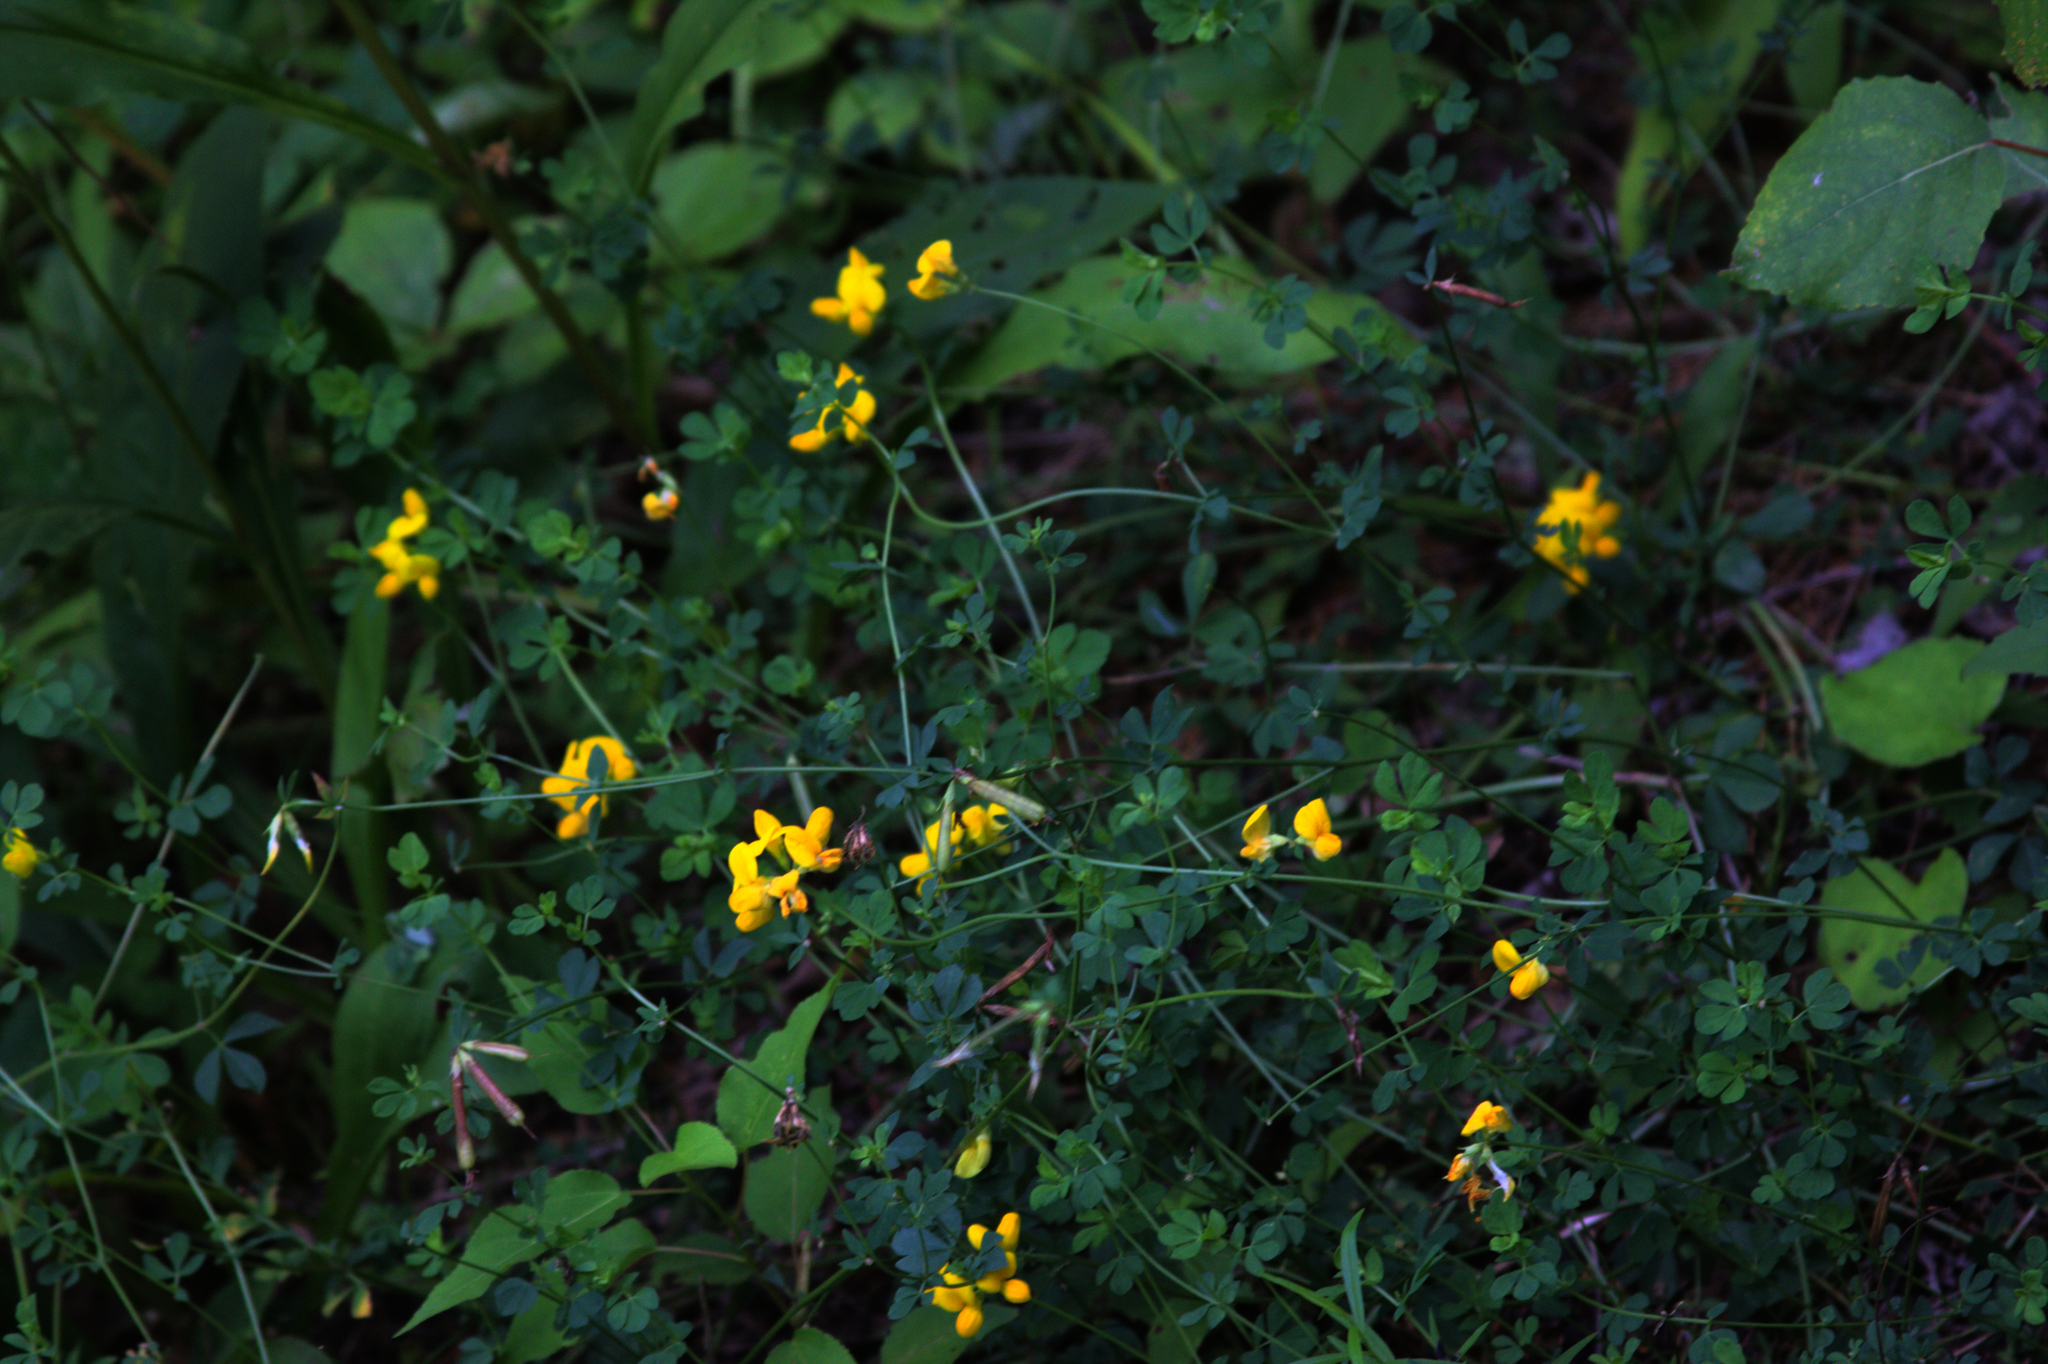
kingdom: Plantae
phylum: Tracheophyta
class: Magnoliopsida
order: Fabales
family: Fabaceae
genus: Lotus
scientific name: Lotus corniculatus
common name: Common bird's-foot-trefoil
